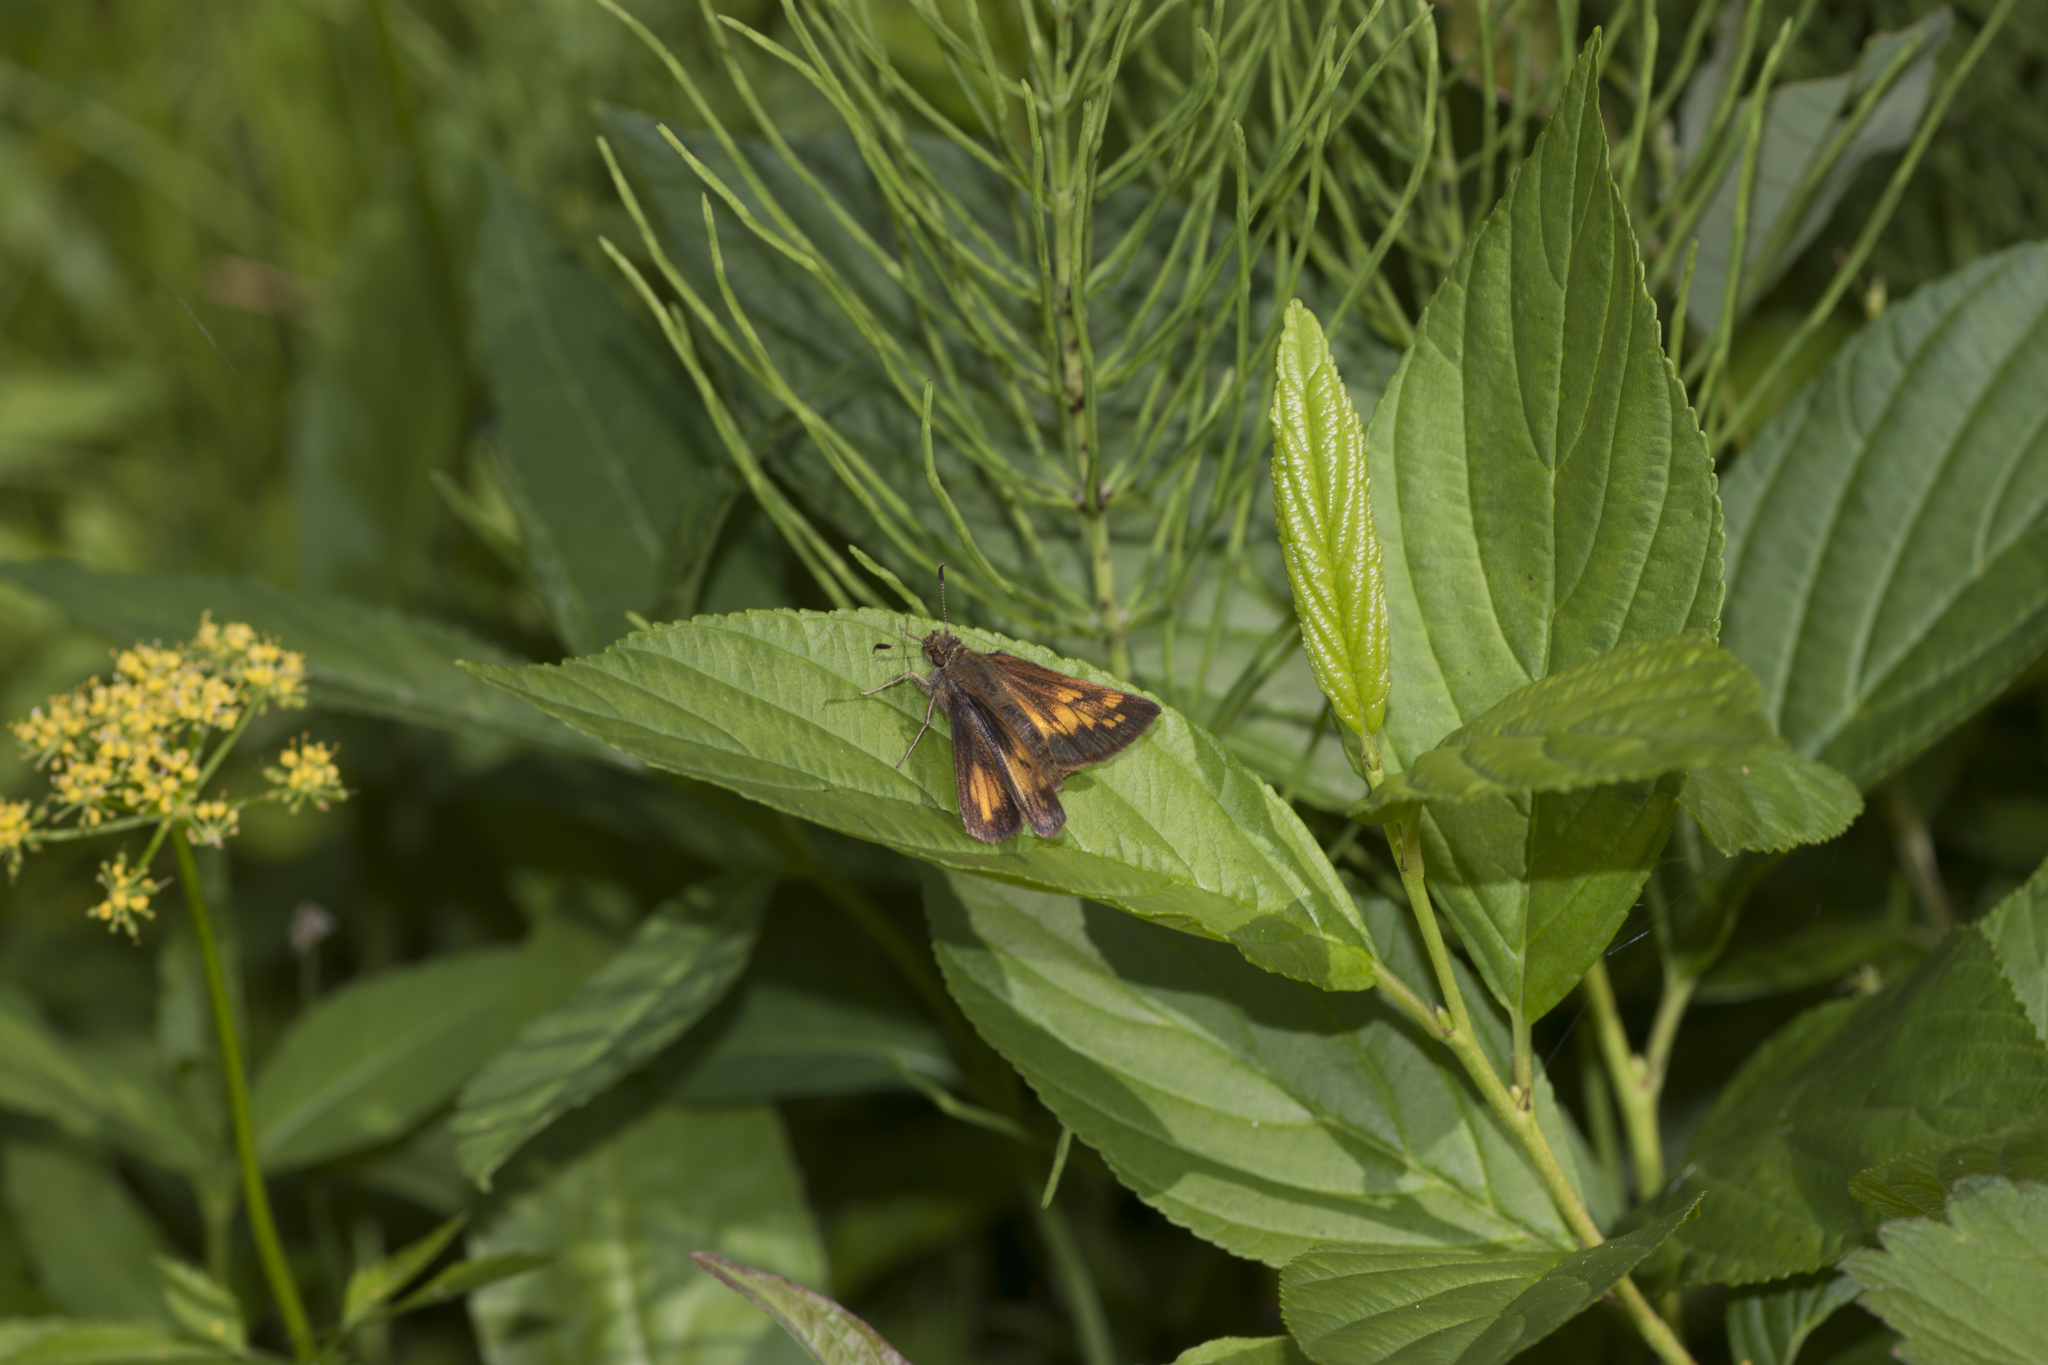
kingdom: Animalia
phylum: Arthropoda
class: Insecta
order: Lepidoptera
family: Hesperiidae
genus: Lon
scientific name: Lon hobomok
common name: Hobomok skipper
